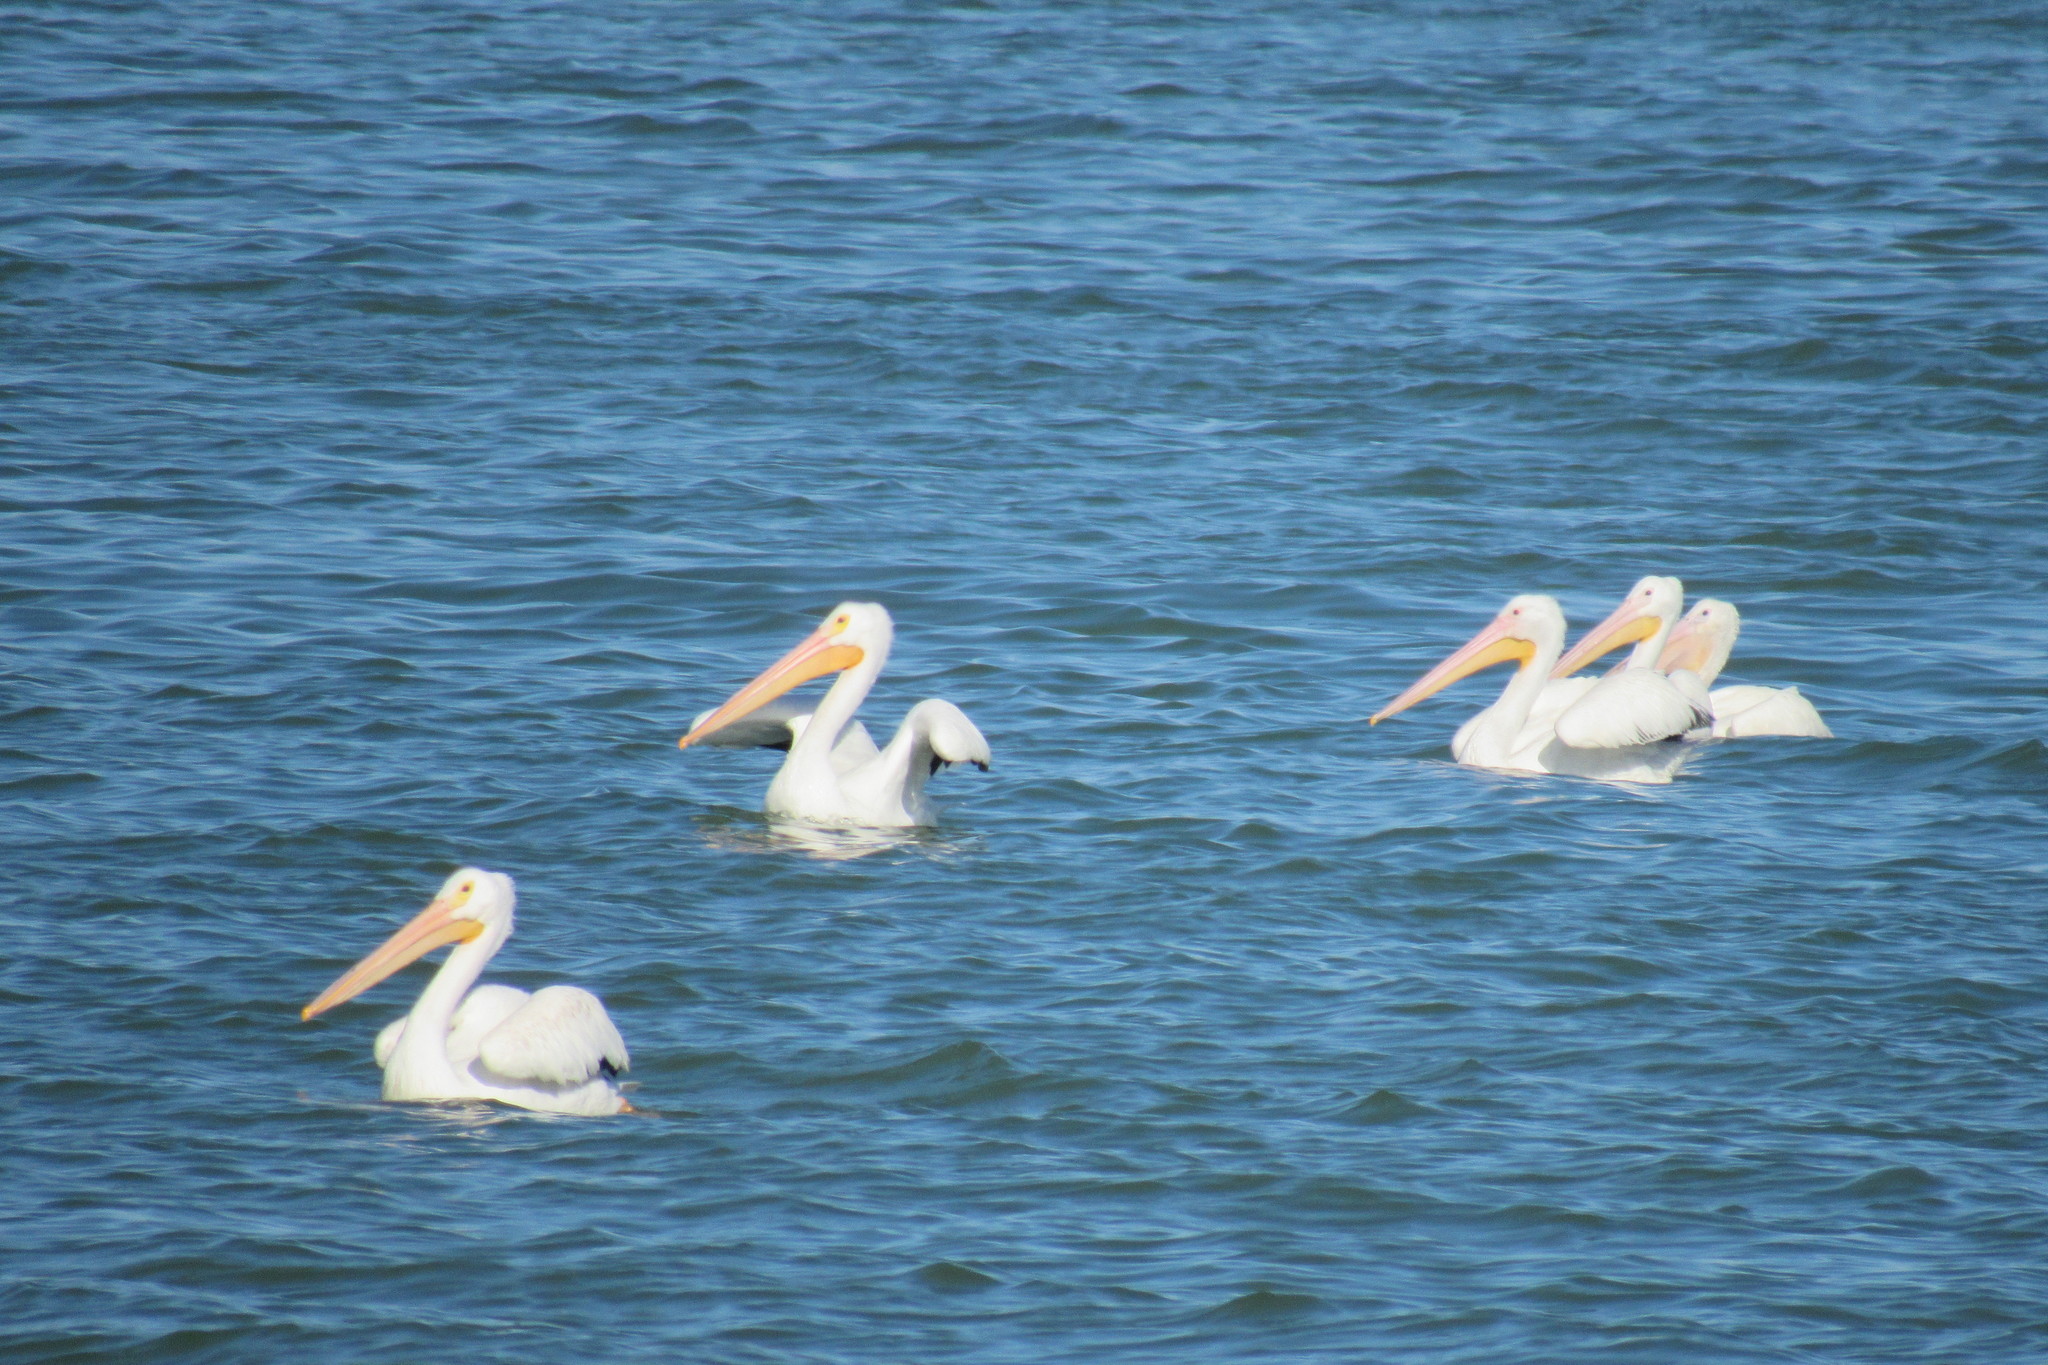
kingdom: Animalia
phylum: Chordata
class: Aves
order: Pelecaniformes
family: Pelecanidae
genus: Pelecanus
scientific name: Pelecanus erythrorhynchos
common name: American white pelican
